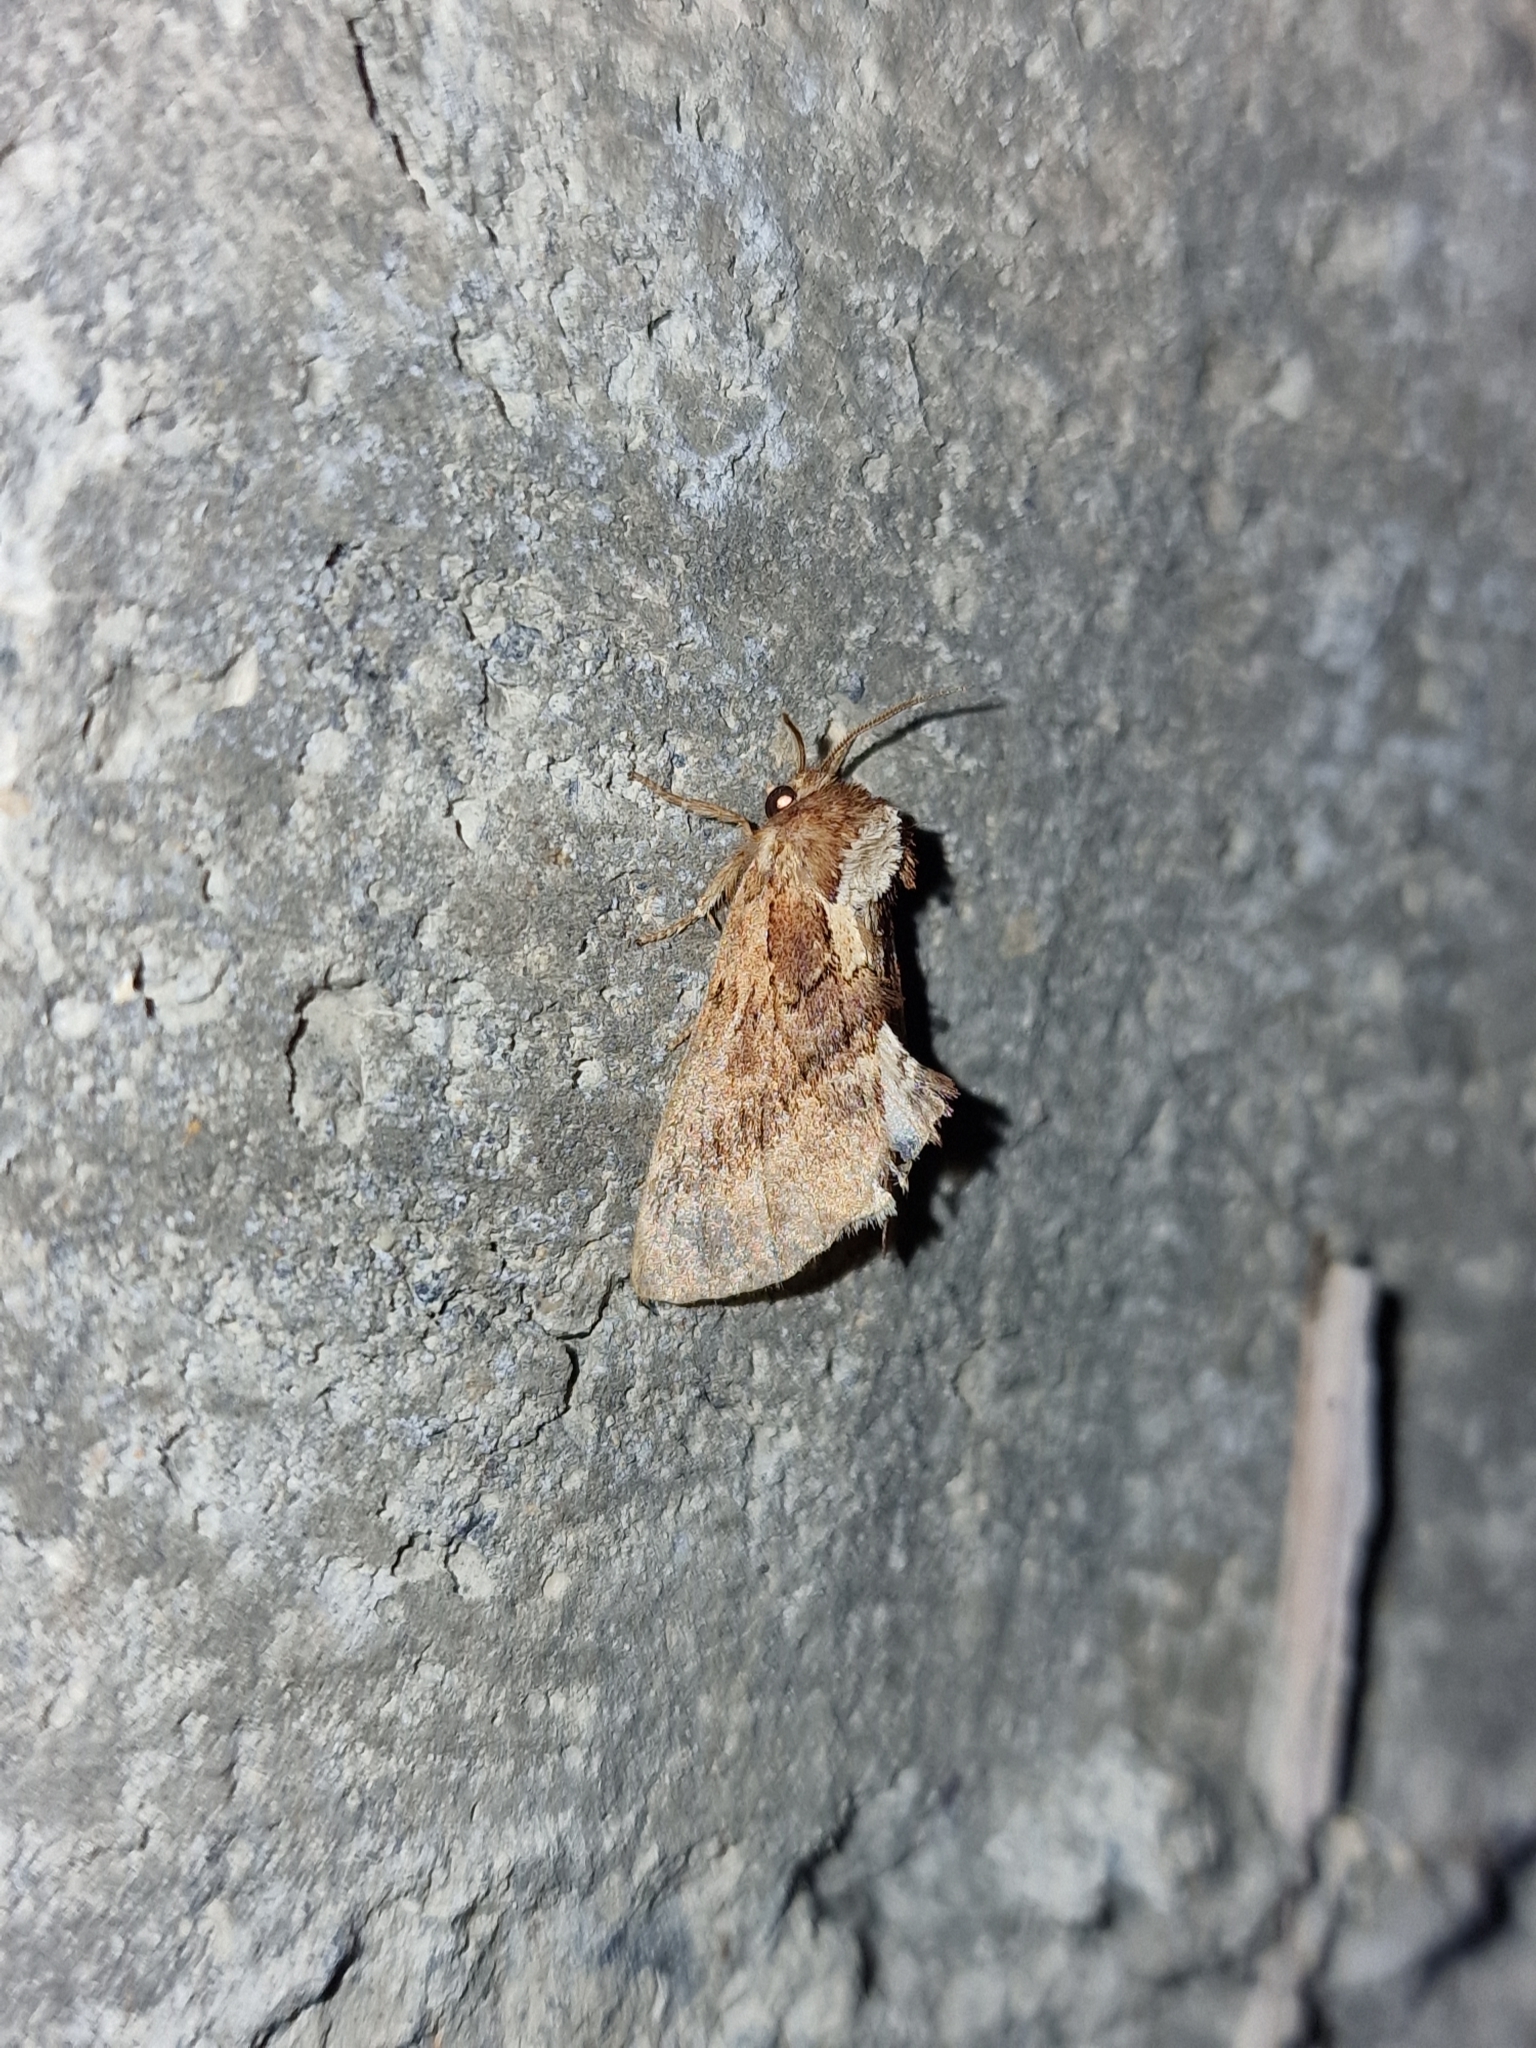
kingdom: Animalia
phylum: Arthropoda
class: Insecta
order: Lepidoptera
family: Notodontidae
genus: Ptilodon
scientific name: Ptilodon capucina
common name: Coxcomb prominent
